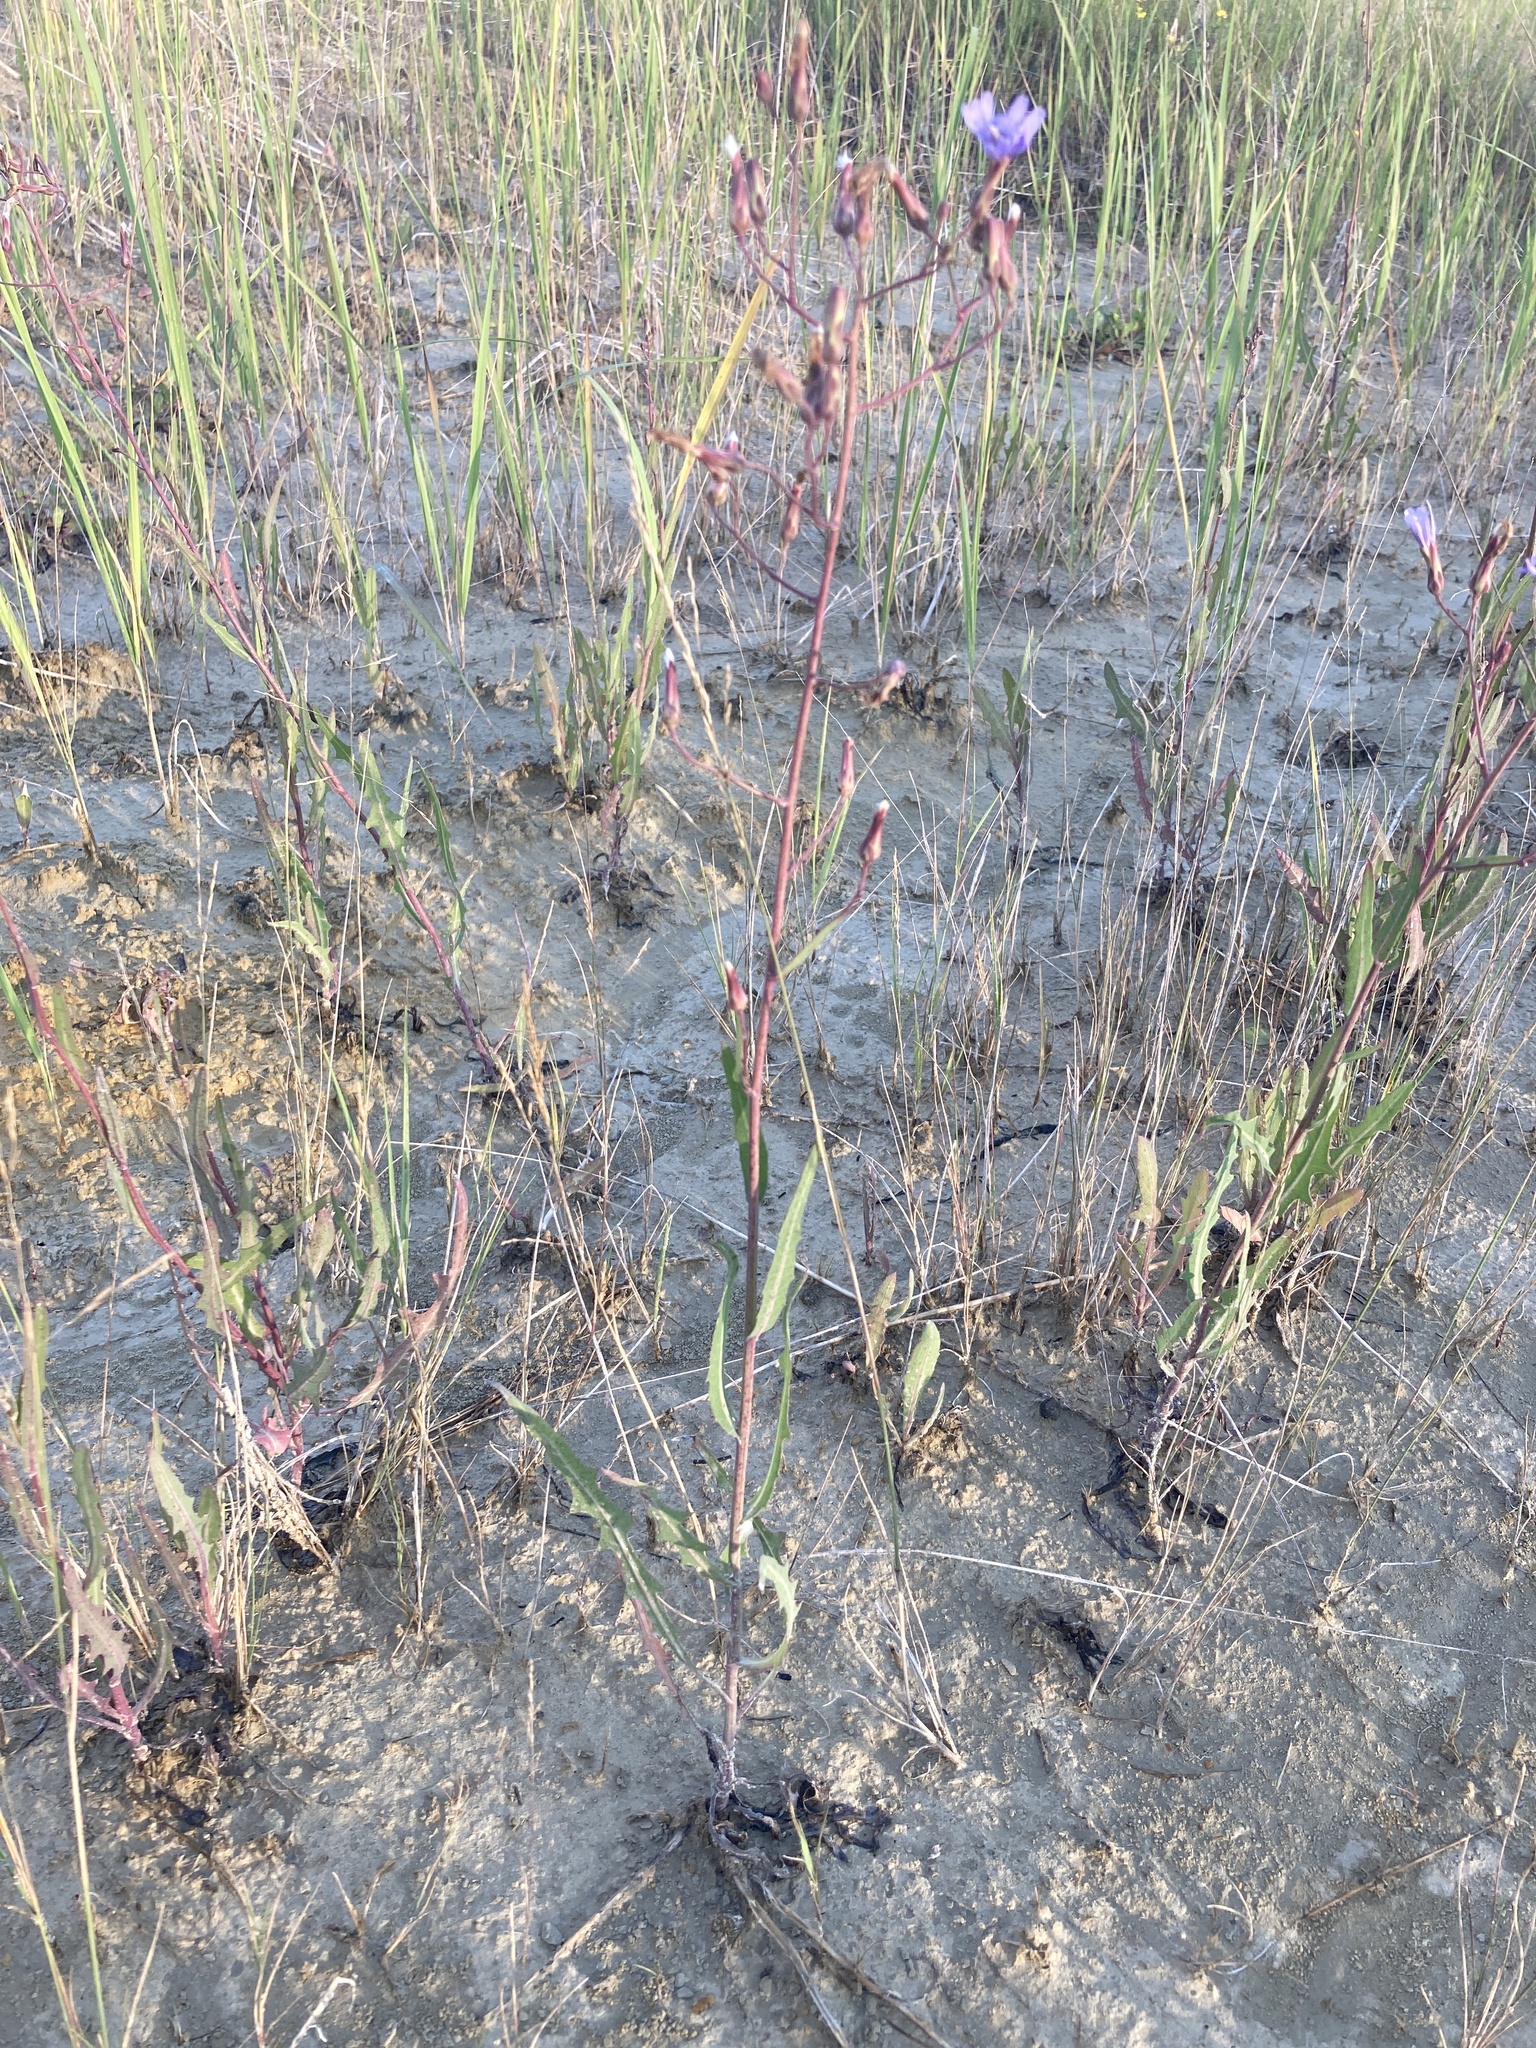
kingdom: Plantae
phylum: Tracheophyta
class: Magnoliopsida
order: Asterales
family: Asteraceae
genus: Lactuca
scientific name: Lactuca tatarica
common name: Blue lettuce
